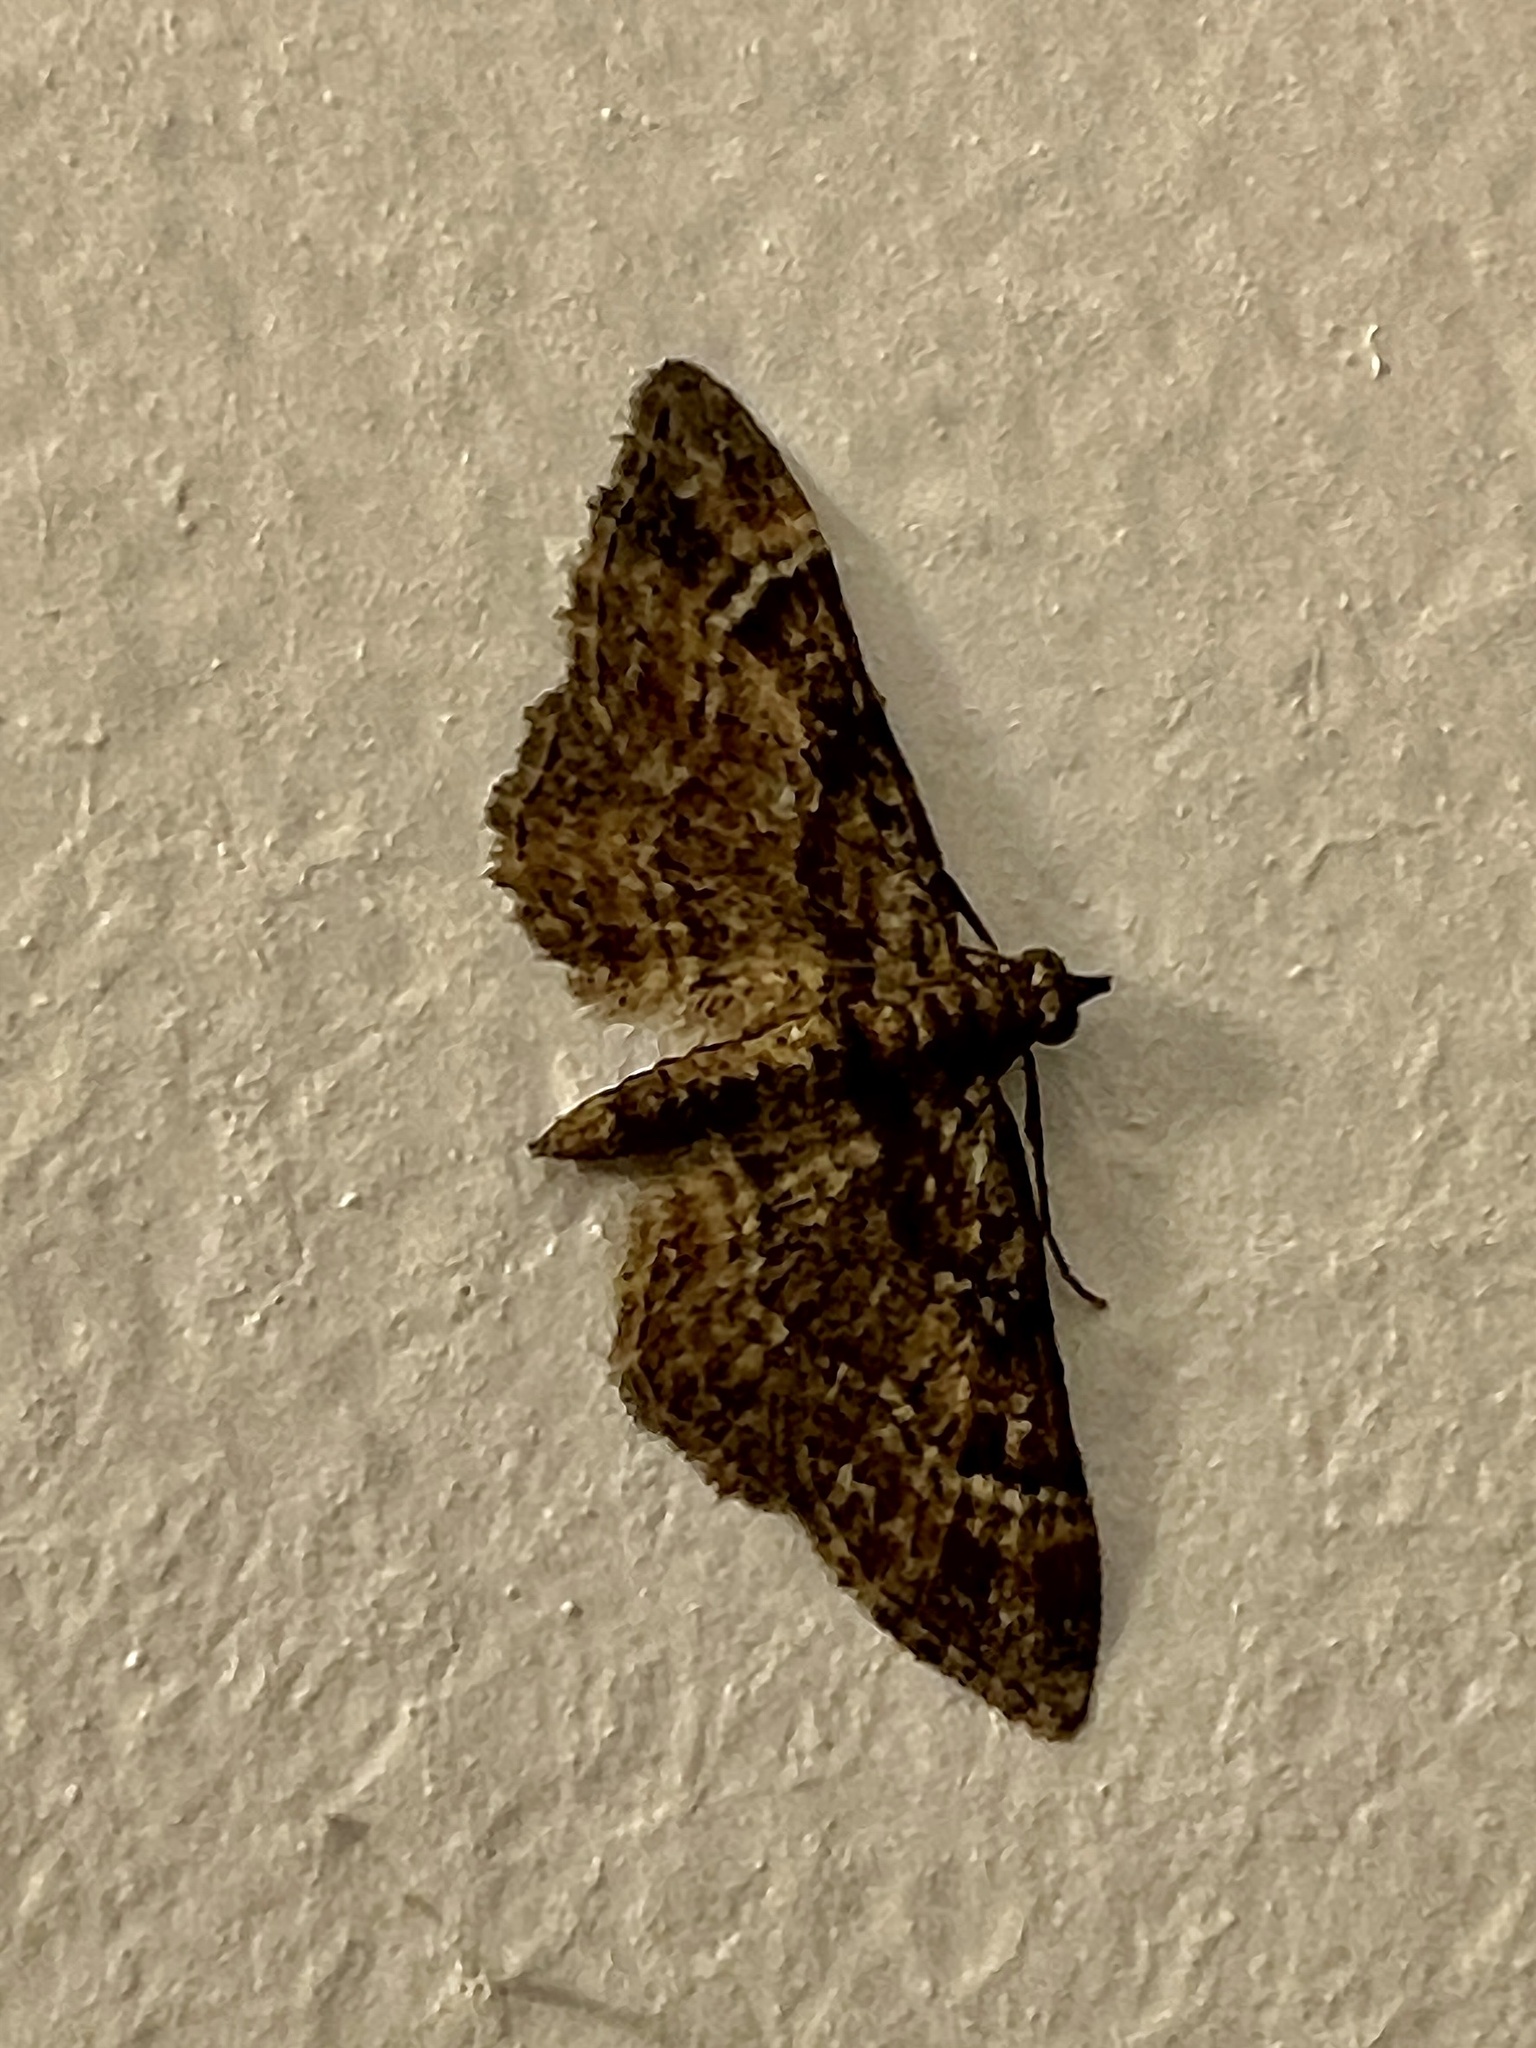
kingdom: Animalia
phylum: Arthropoda
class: Insecta
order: Lepidoptera
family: Geometridae
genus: Gymnoscelis
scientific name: Gymnoscelis rufifasciata
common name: Double-striped pug
